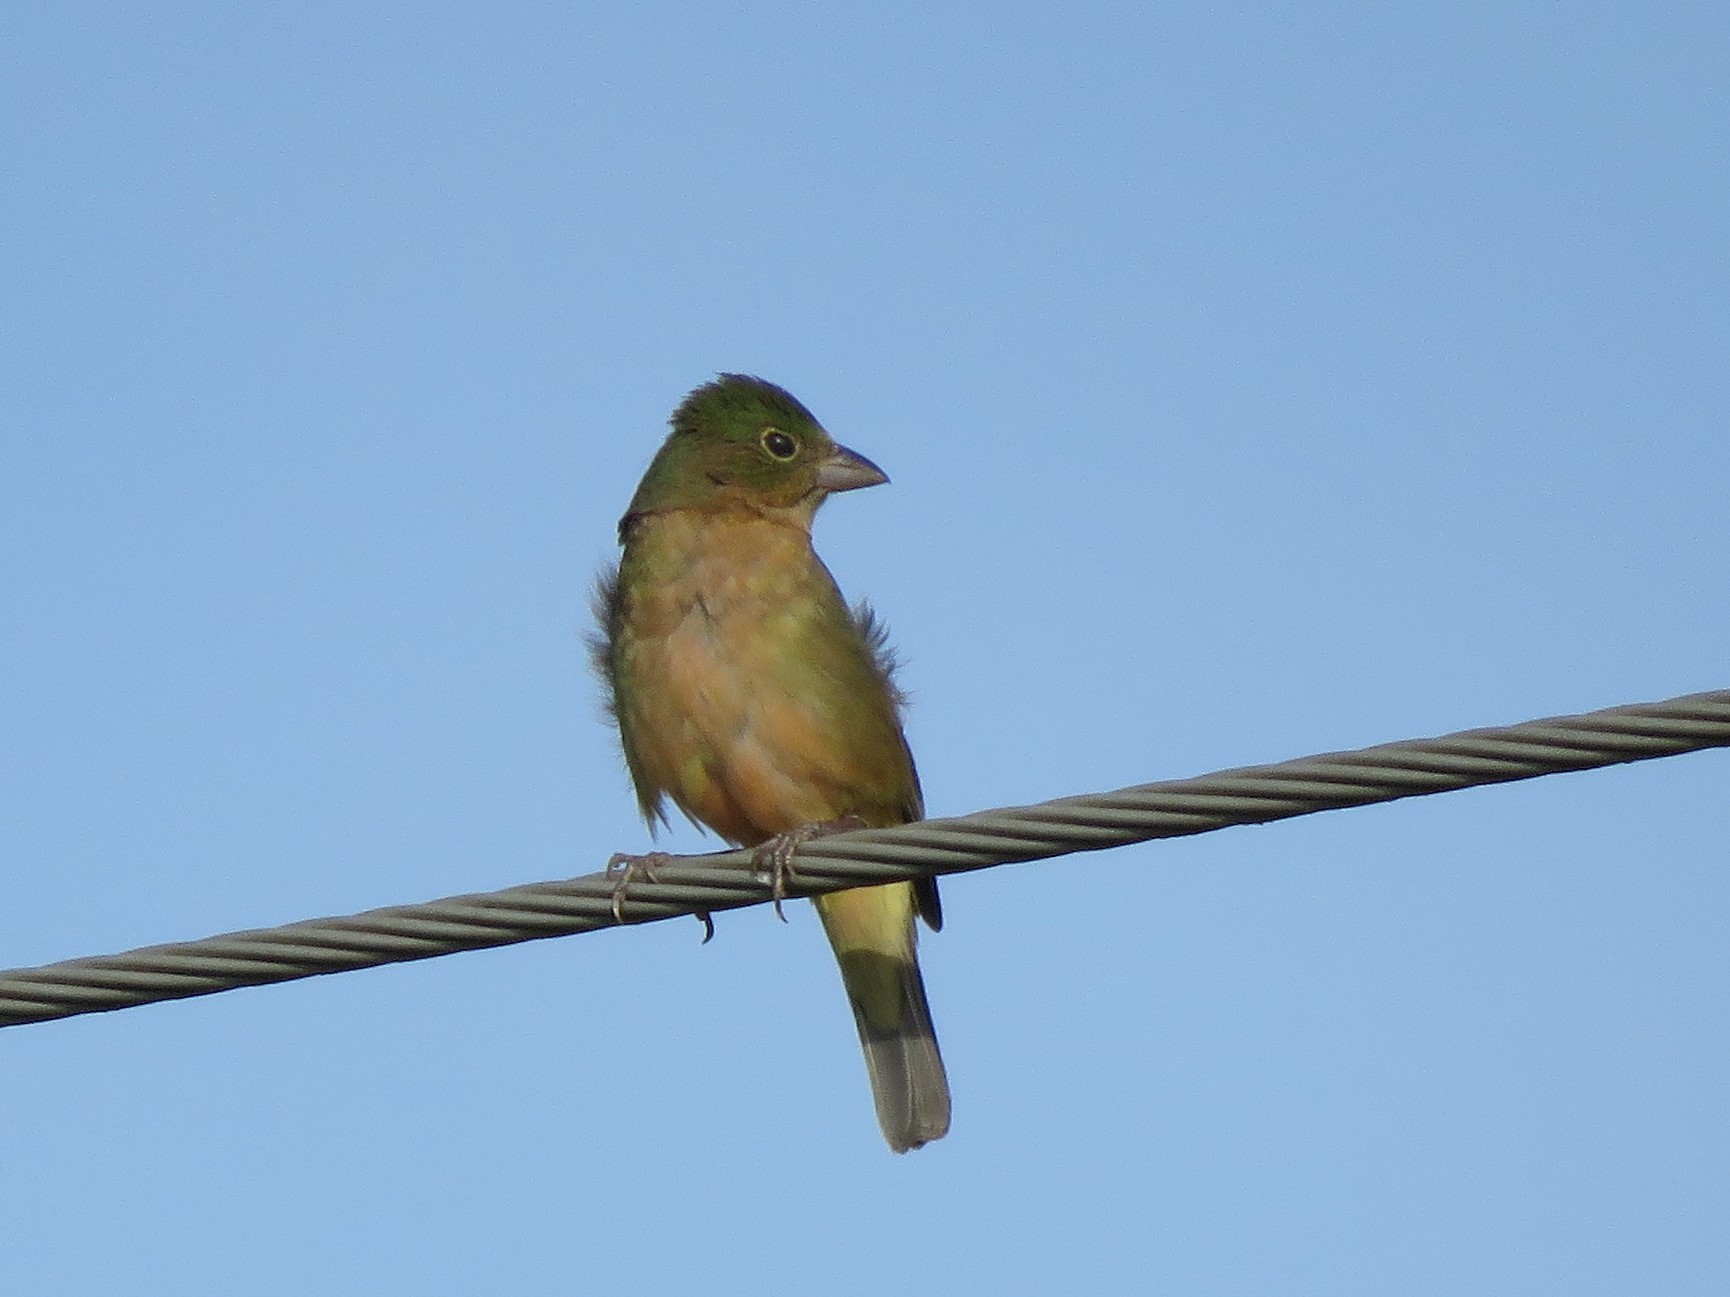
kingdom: Animalia
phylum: Chordata
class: Aves
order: Passeriformes
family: Cardinalidae
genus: Passerina
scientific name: Passerina ciris
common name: Painted bunting
